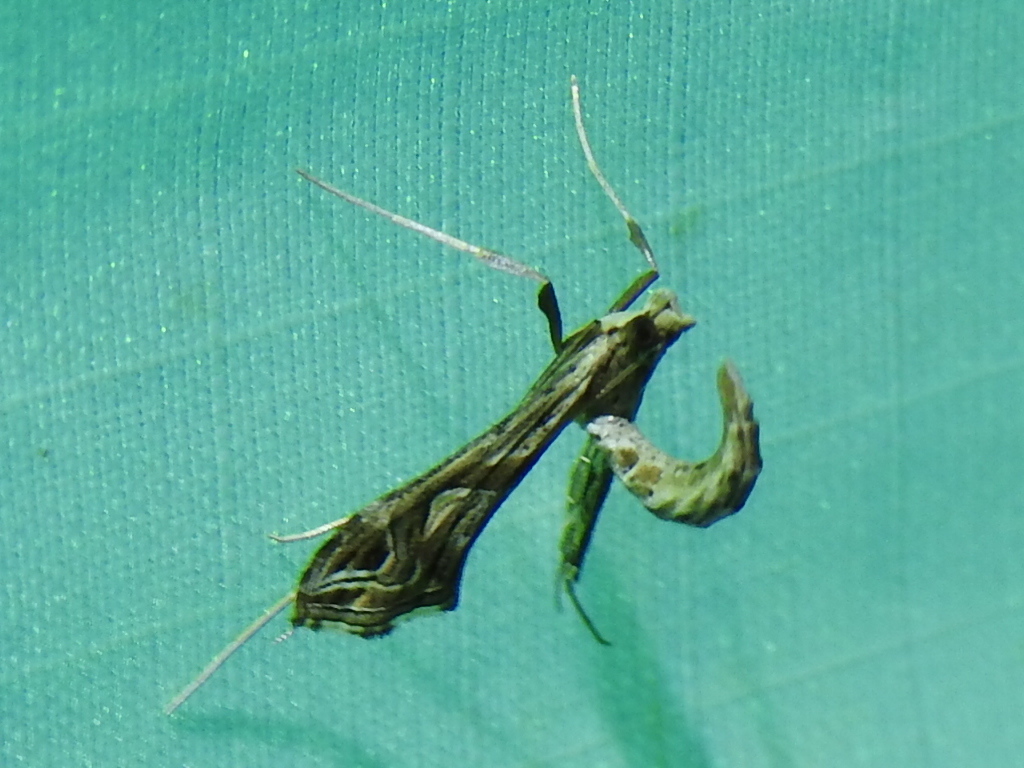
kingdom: Animalia
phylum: Arthropoda
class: Insecta
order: Lepidoptera
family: Crambidae
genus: Lineodes
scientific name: Lineodes integra
